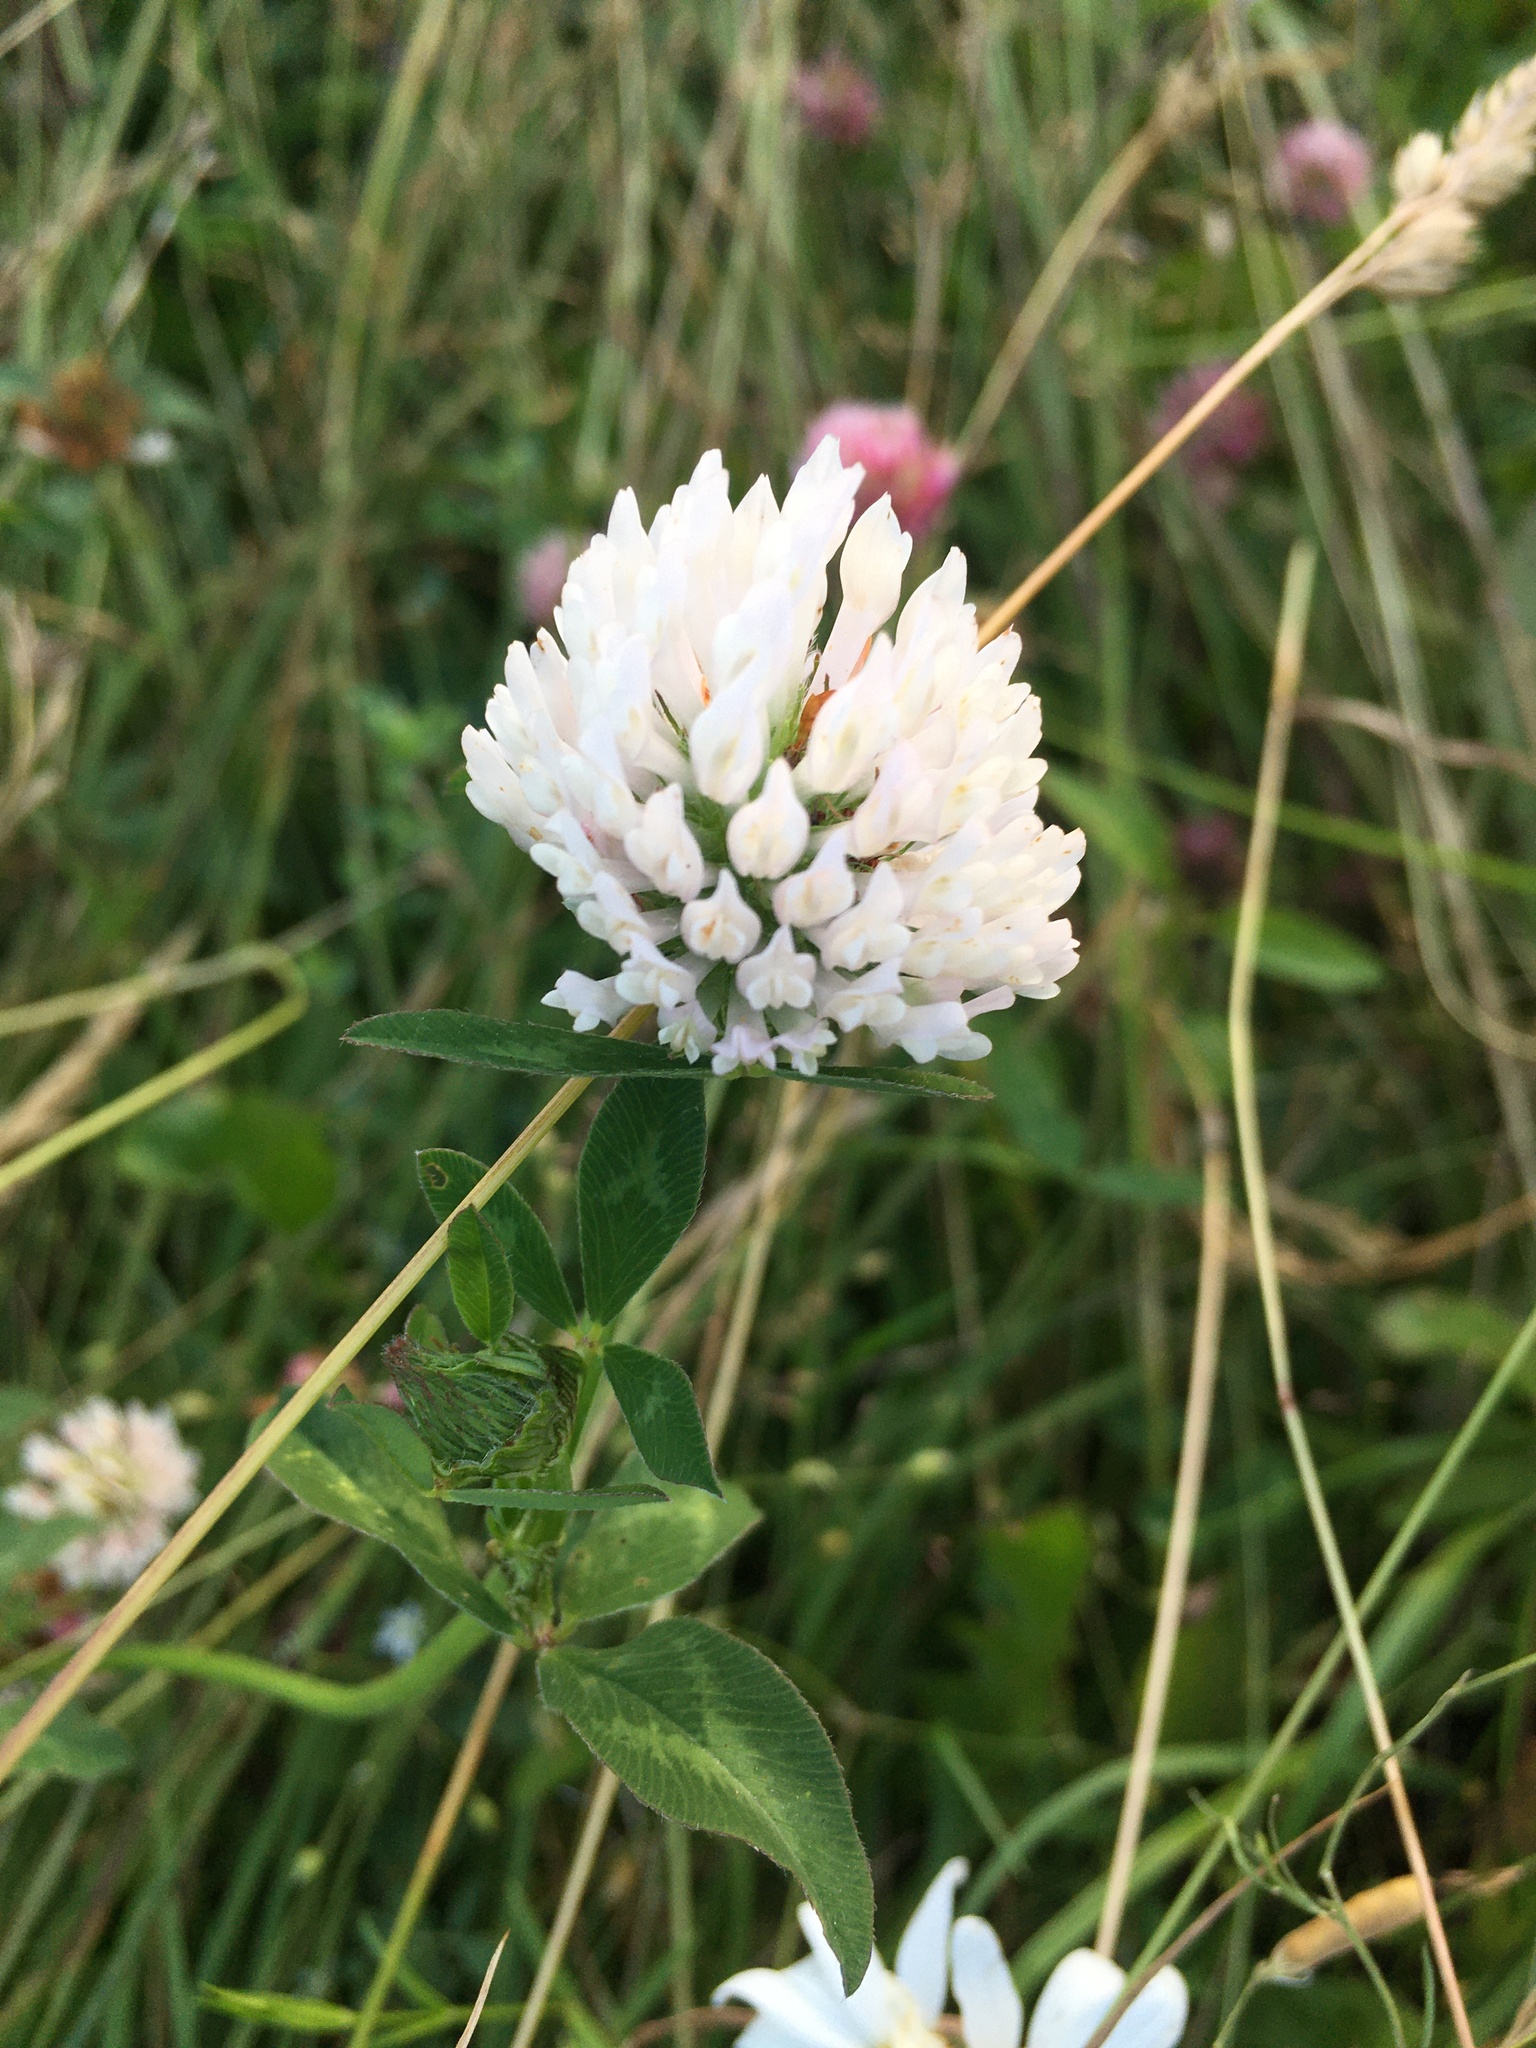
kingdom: Plantae
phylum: Tracheophyta
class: Magnoliopsida
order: Fabales
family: Fabaceae
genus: Trifolium
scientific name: Trifolium pratense
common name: Red clover
